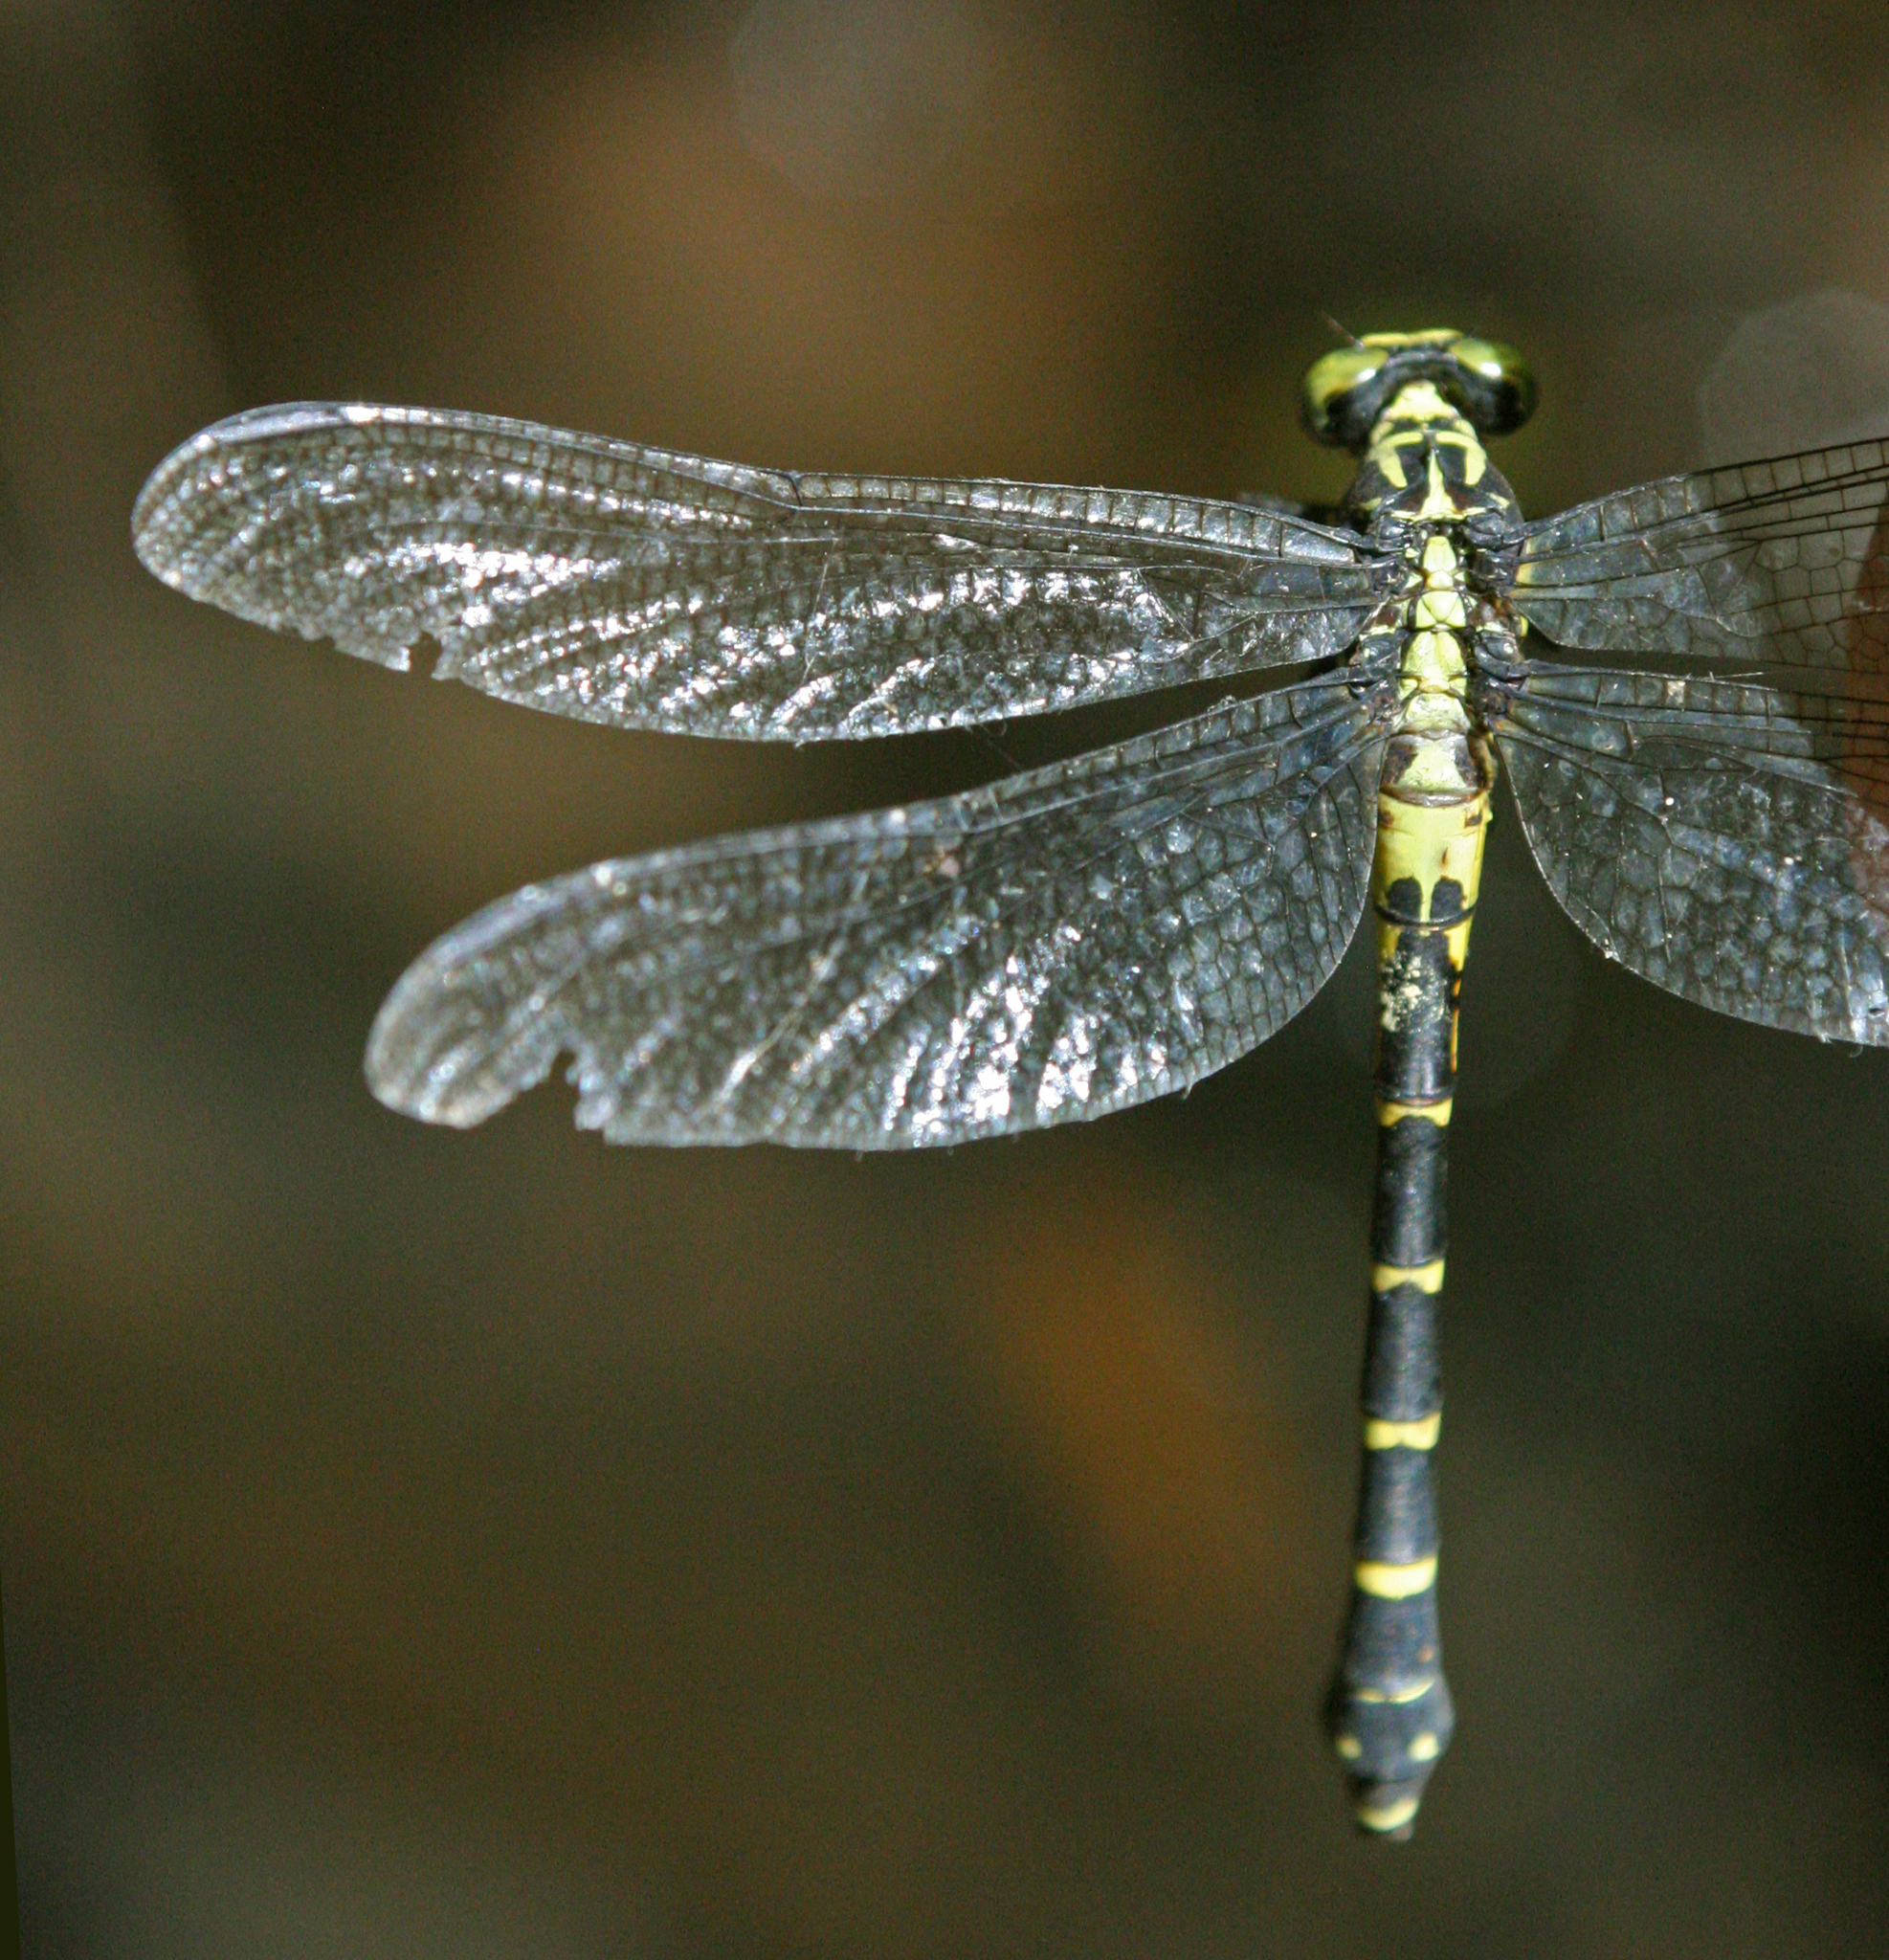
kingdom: Animalia
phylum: Arthropoda
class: Insecta
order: Odonata
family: Gomphidae
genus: Asiagomphus
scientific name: Asiagomphus reinhardti
